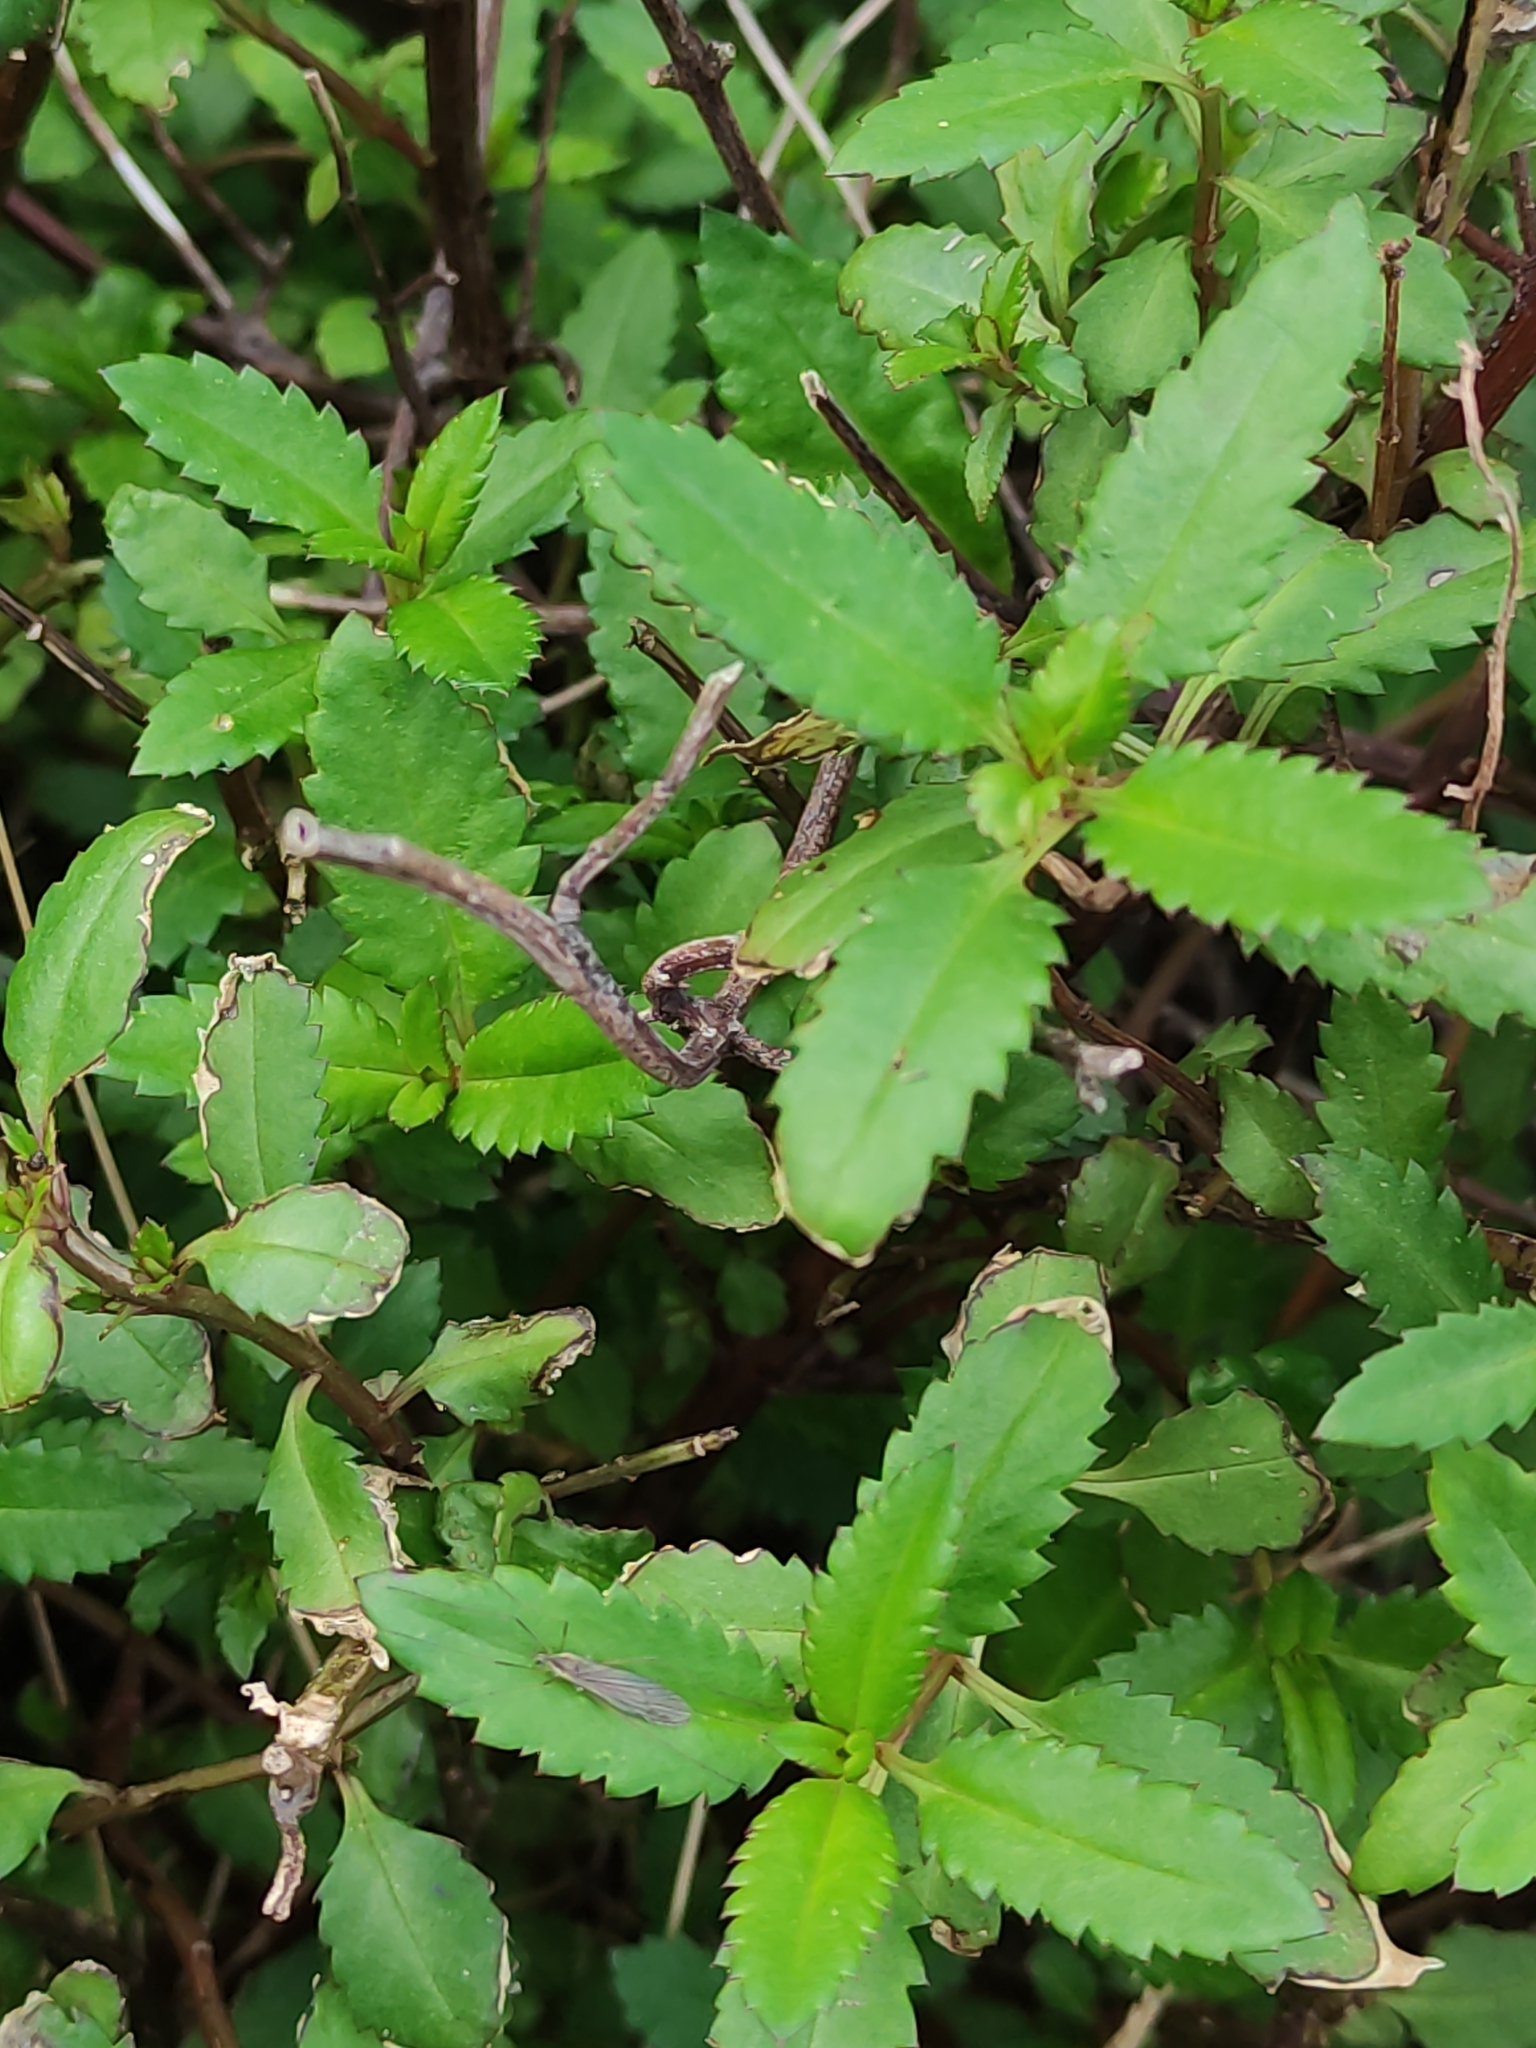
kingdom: Plantae
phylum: Tracheophyta
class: Magnoliopsida
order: Saxifragales
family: Haloragaceae
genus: Haloragis
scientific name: Haloragis erecta
